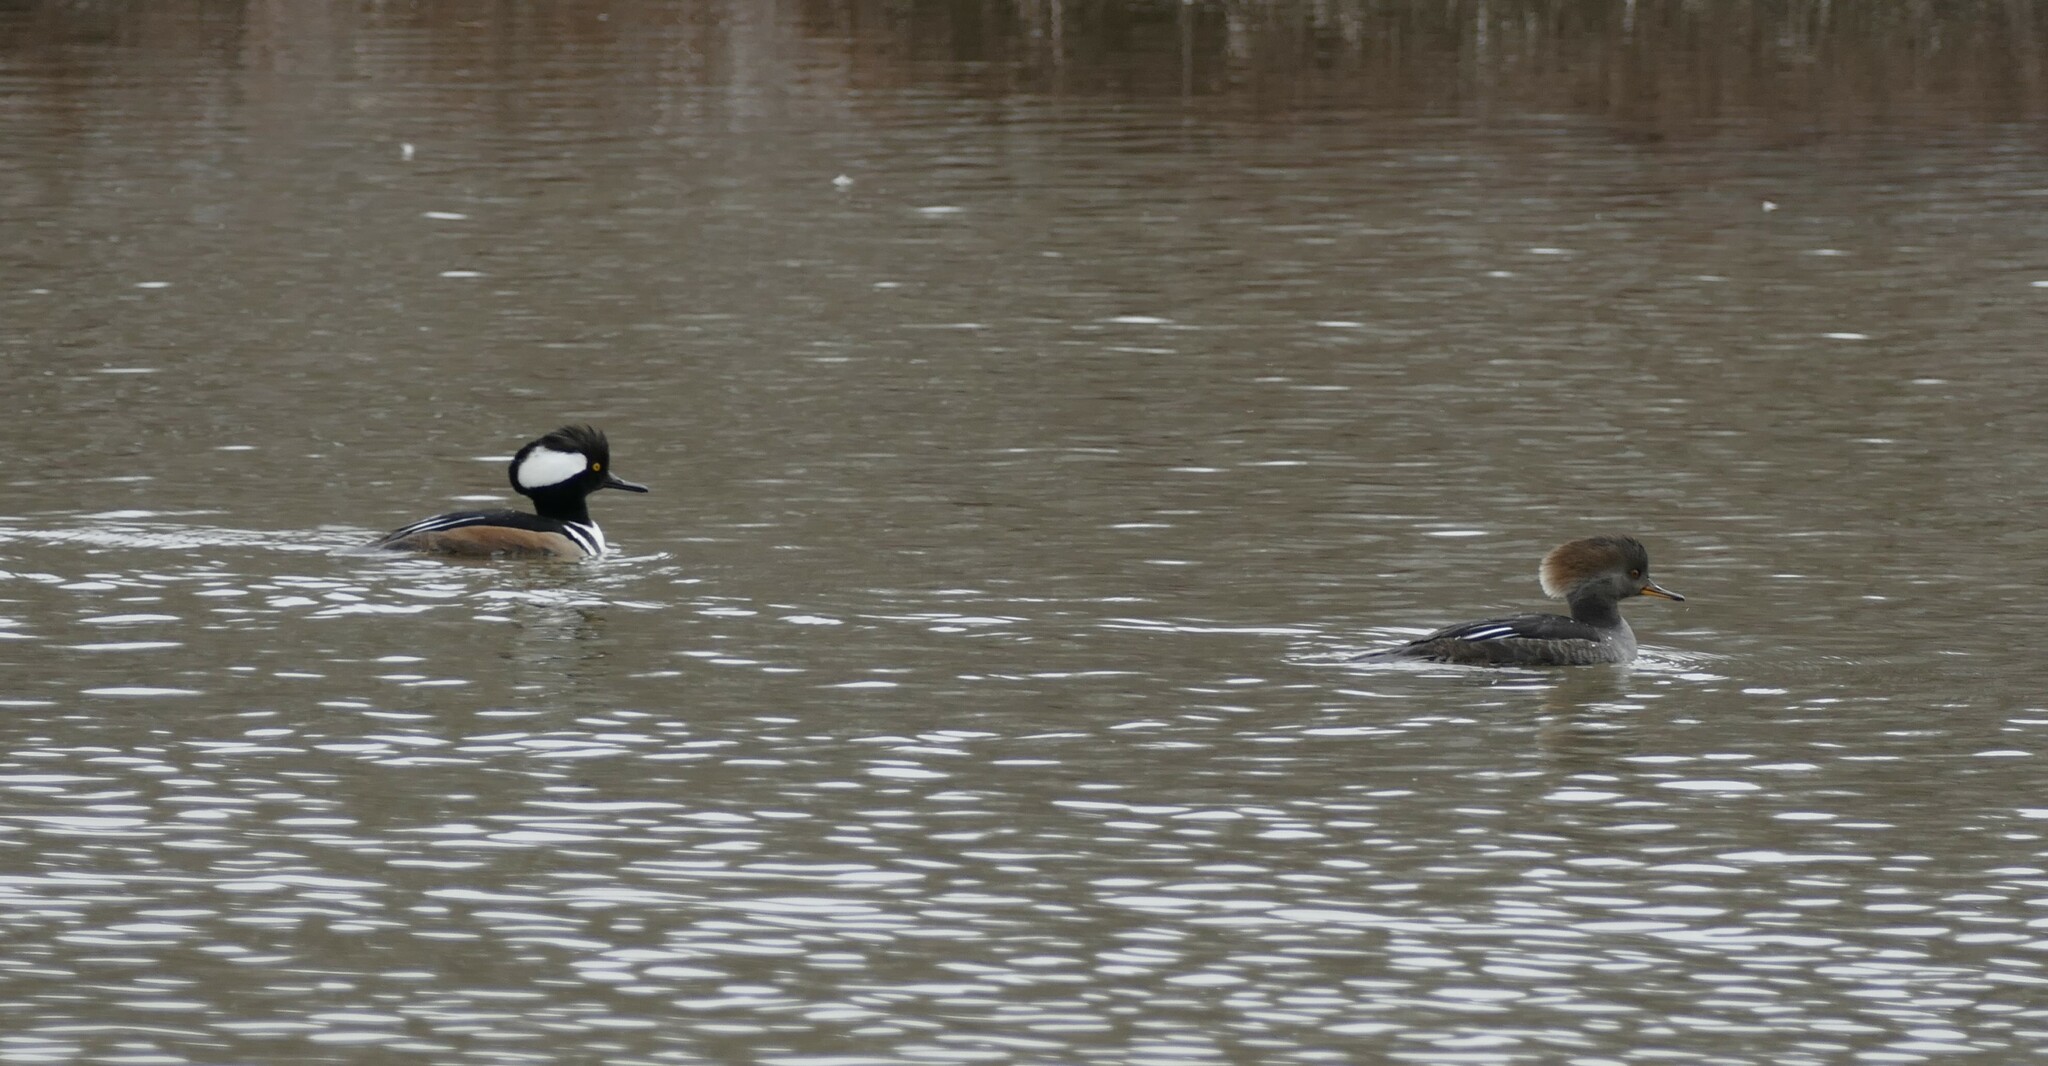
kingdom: Animalia
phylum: Chordata
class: Aves
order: Anseriformes
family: Anatidae
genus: Lophodytes
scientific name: Lophodytes cucullatus
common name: Hooded merganser
